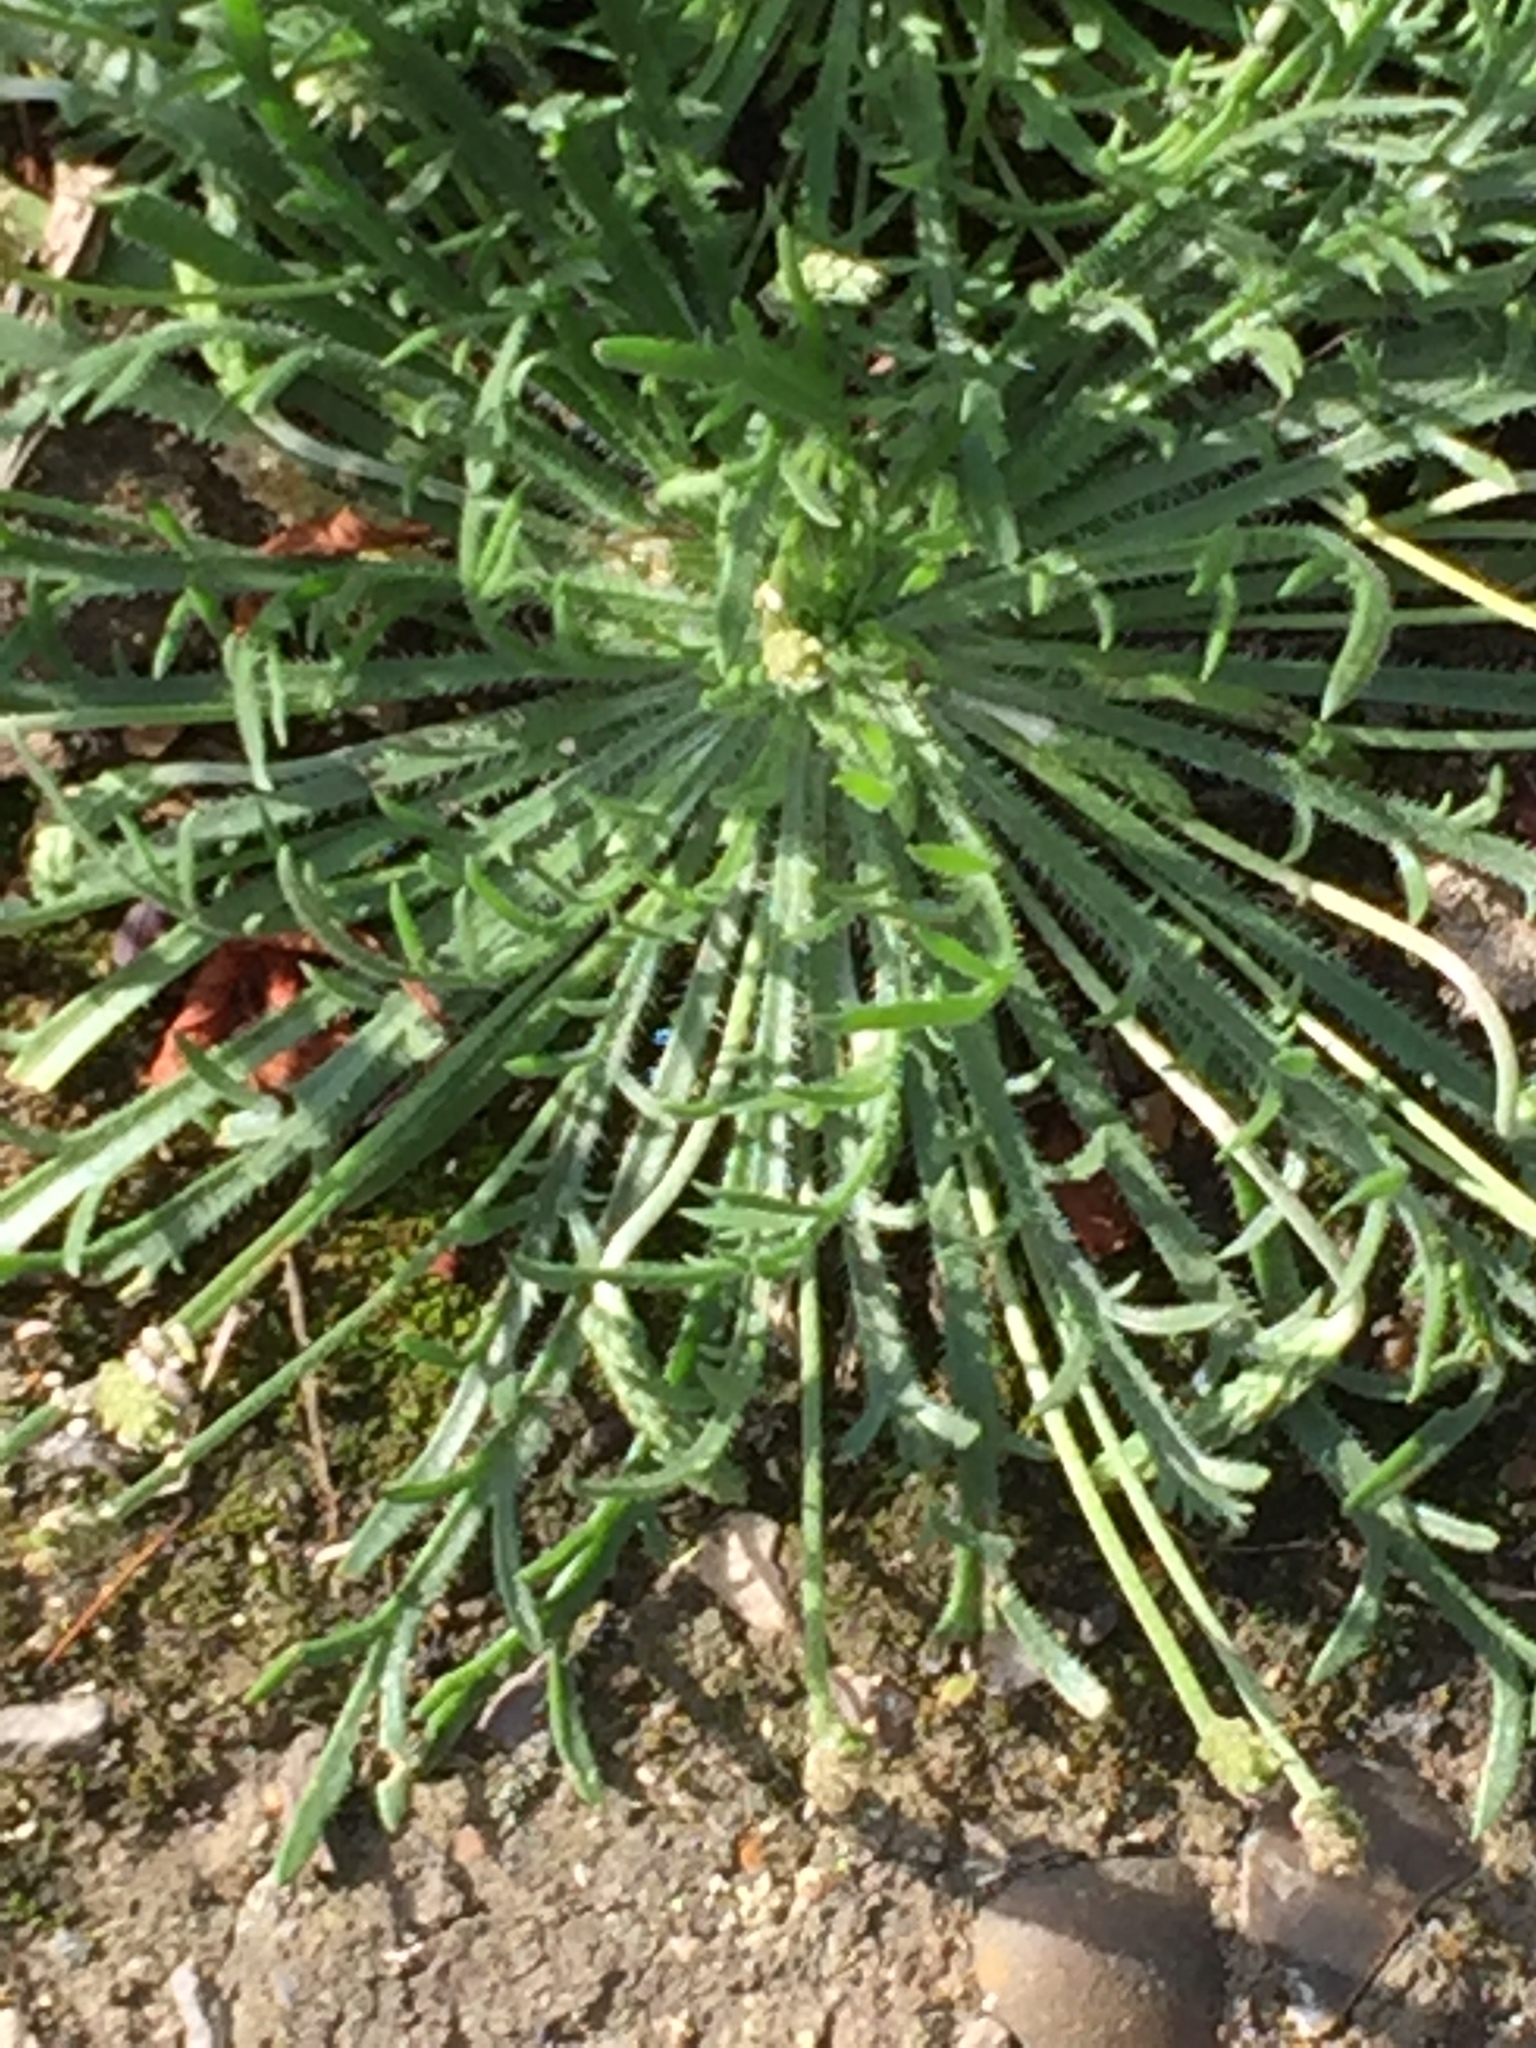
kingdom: Plantae
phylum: Tracheophyta
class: Magnoliopsida
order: Lamiales
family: Plantaginaceae
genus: Plantago
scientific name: Plantago coronopus
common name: Buck's-horn plantain
